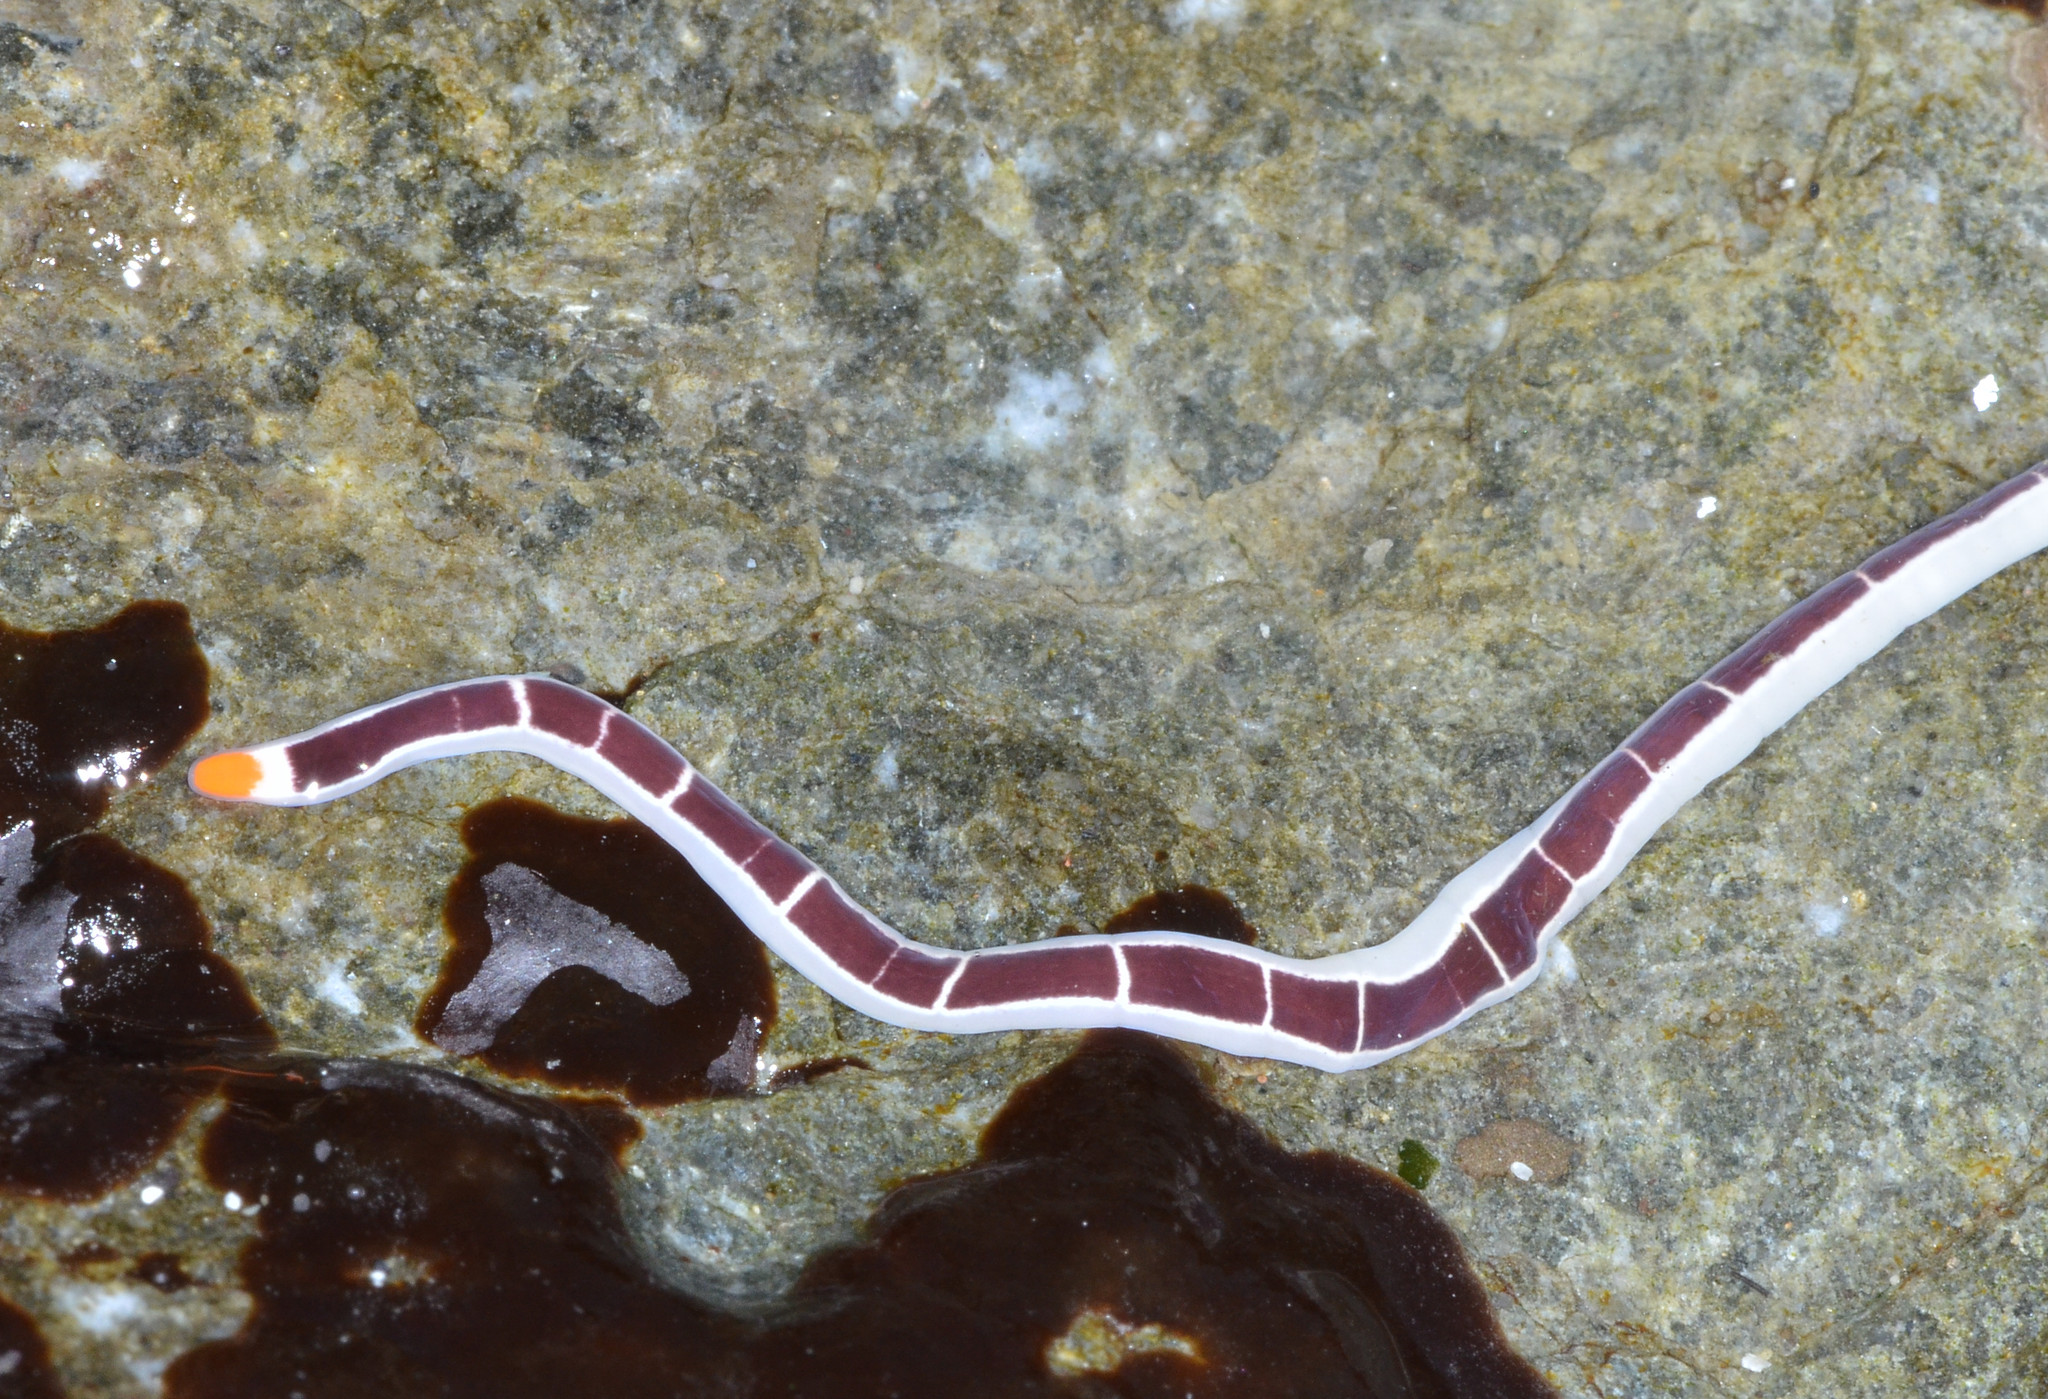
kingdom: Animalia
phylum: Nemertea
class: Pilidiophora
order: Heteronemertea
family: Lineidae
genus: Micrura
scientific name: Micrura verrilli
